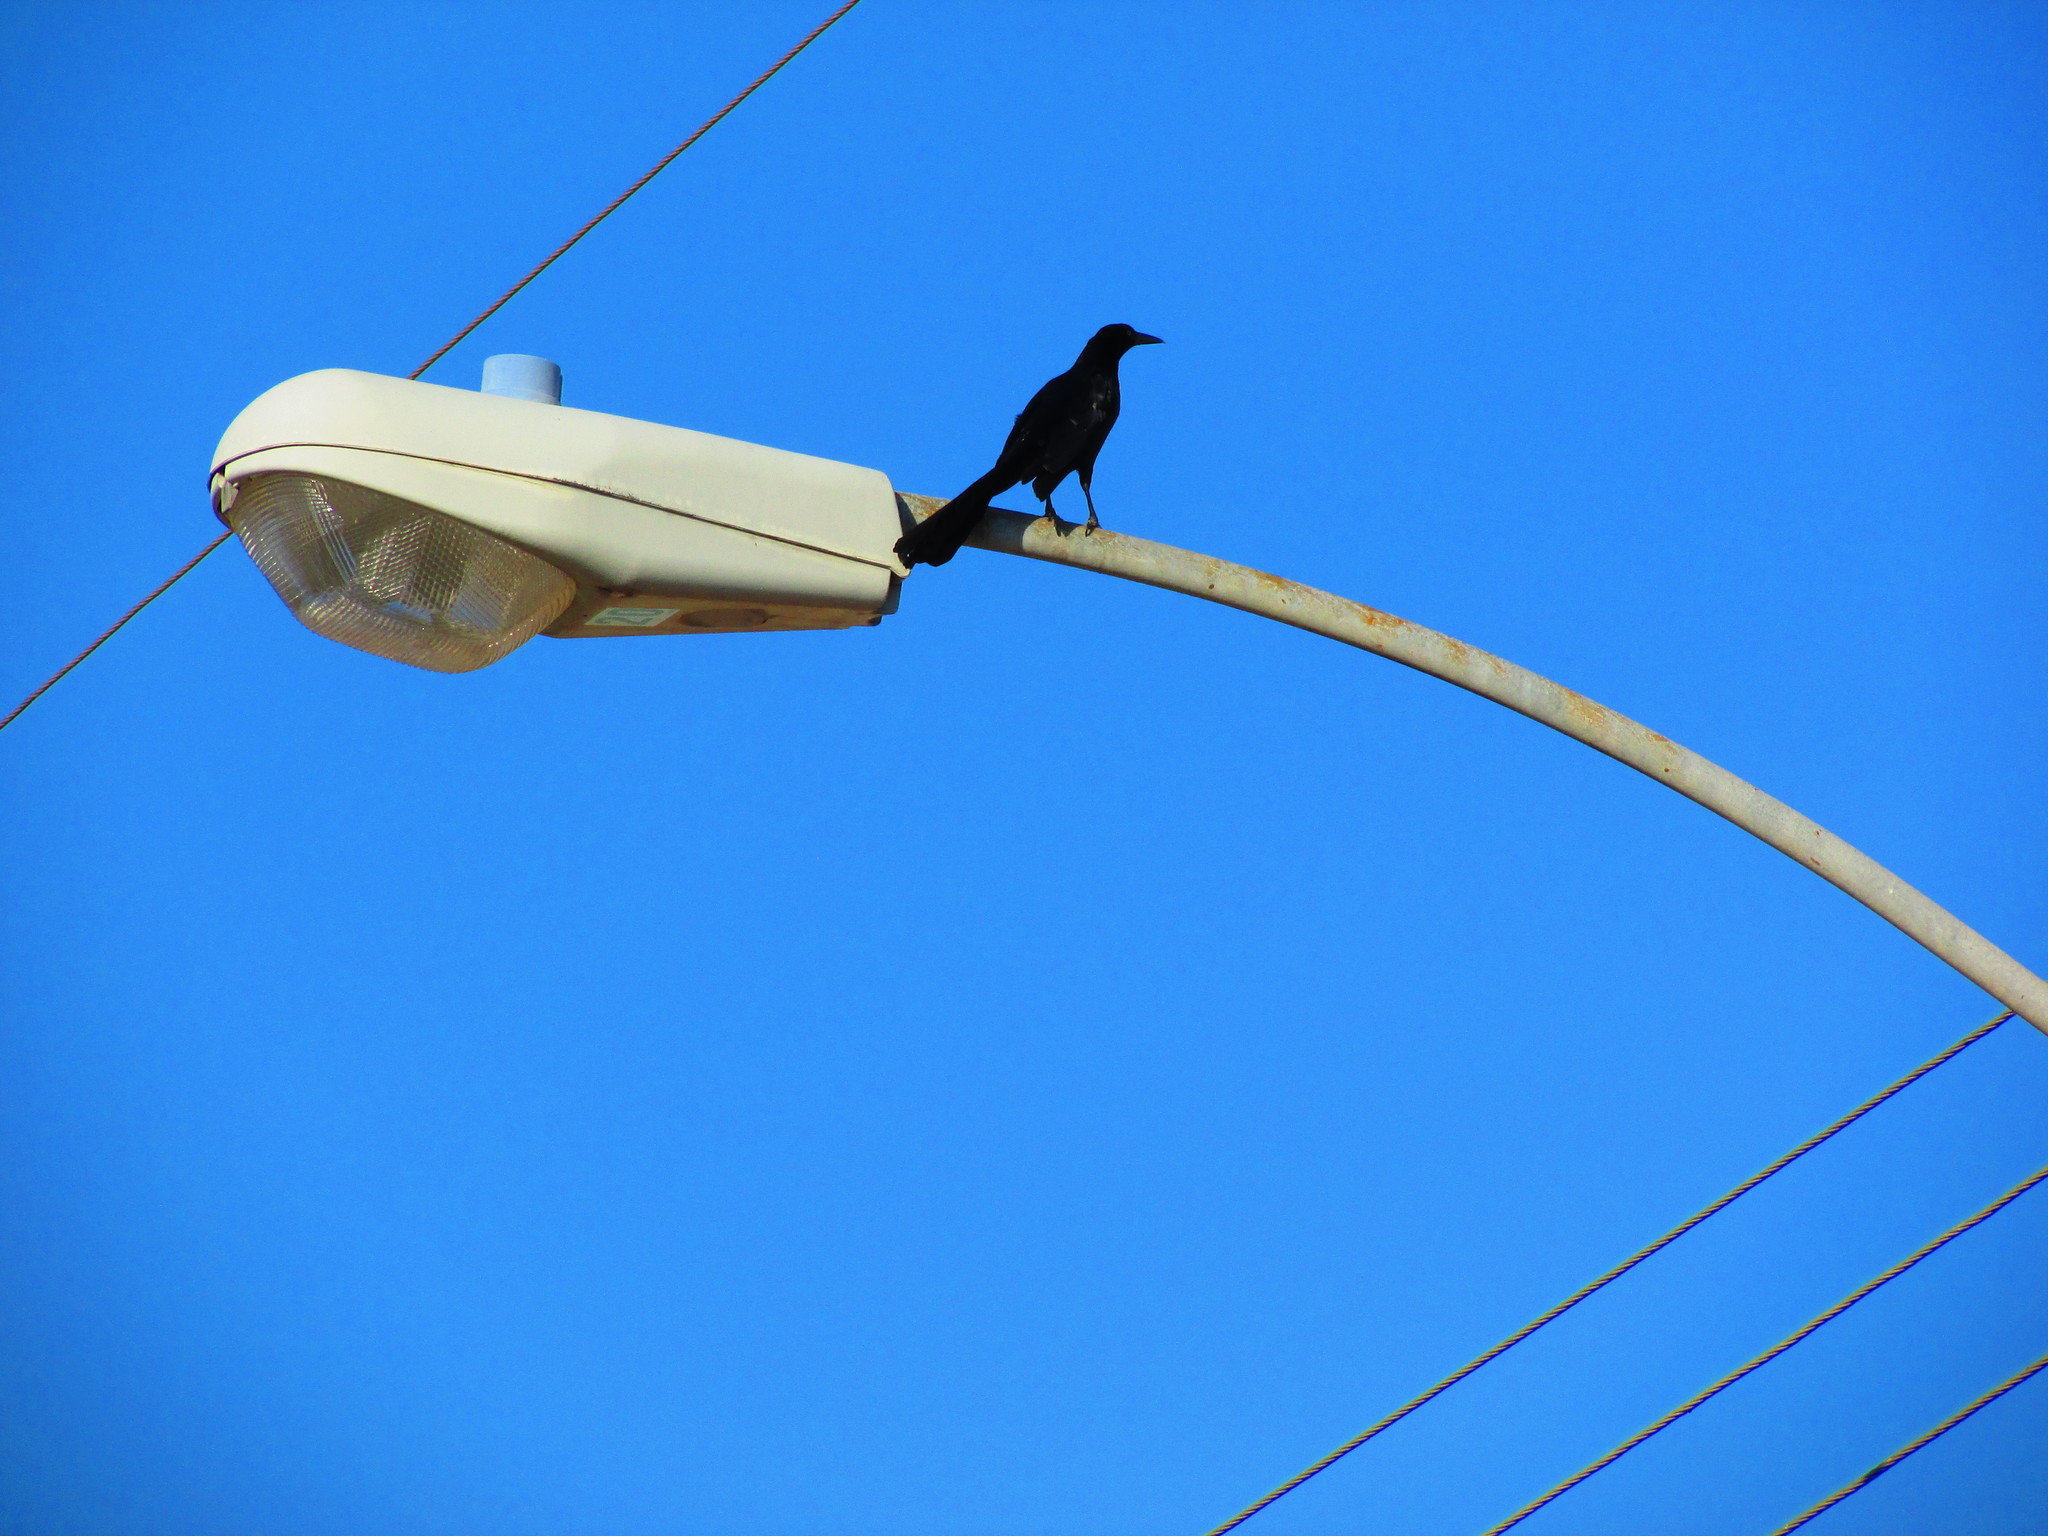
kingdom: Animalia
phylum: Chordata
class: Aves
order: Passeriformes
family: Icteridae
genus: Quiscalus
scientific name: Quiscalus mexicanus
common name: Great-tailed grackle
